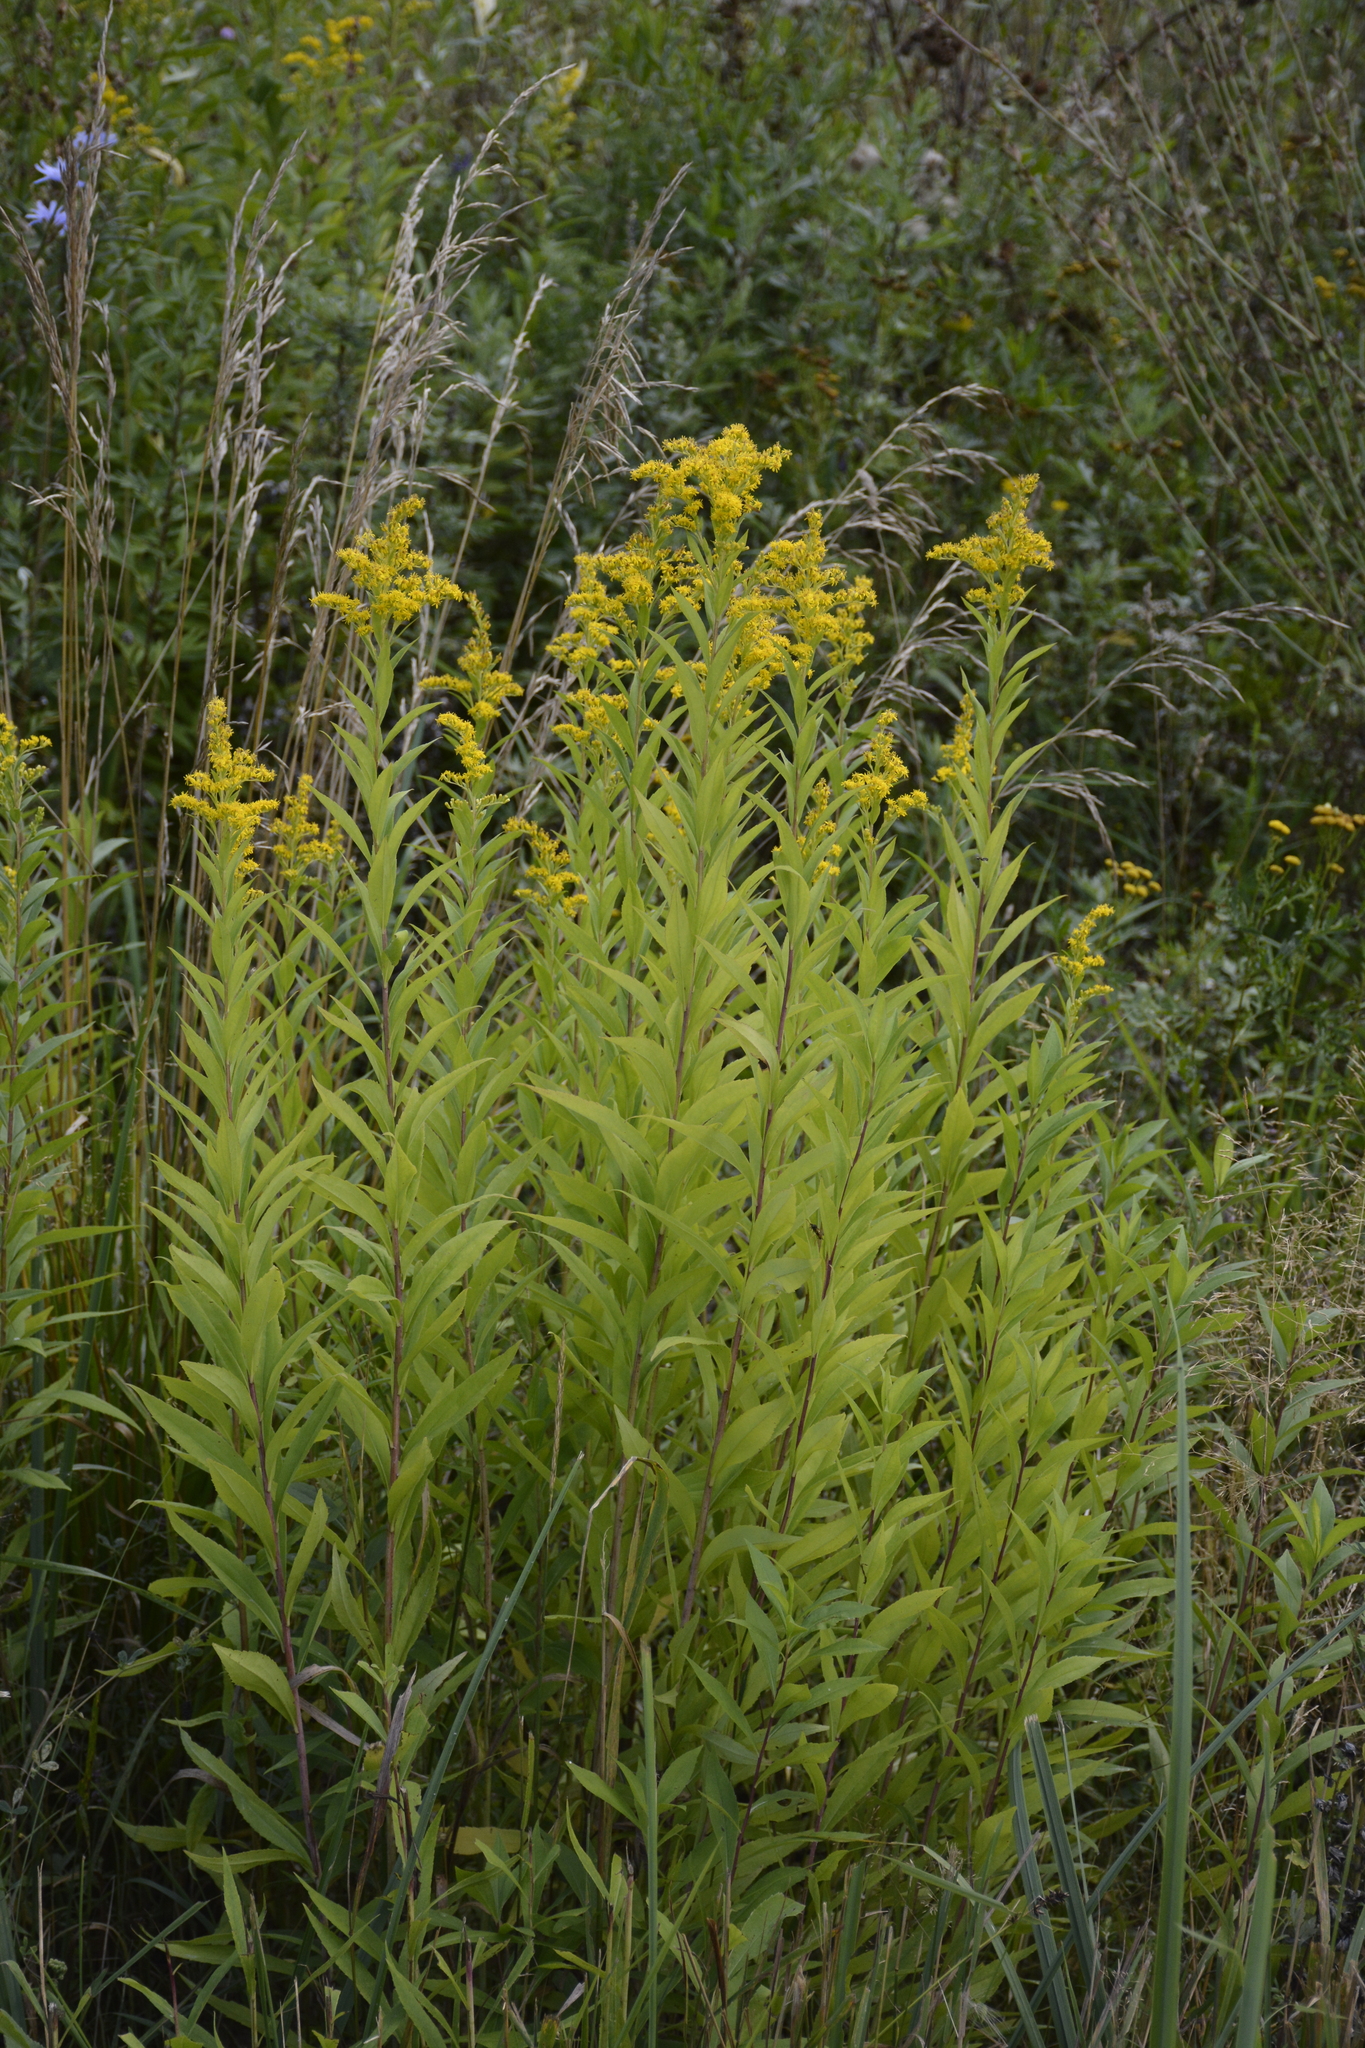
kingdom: Plantae
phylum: Tracheophyta
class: Magnoliopsida
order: Asterales
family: Asteraceae
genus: Solidago
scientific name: Solidago gigantea
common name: Giant goldenrod
